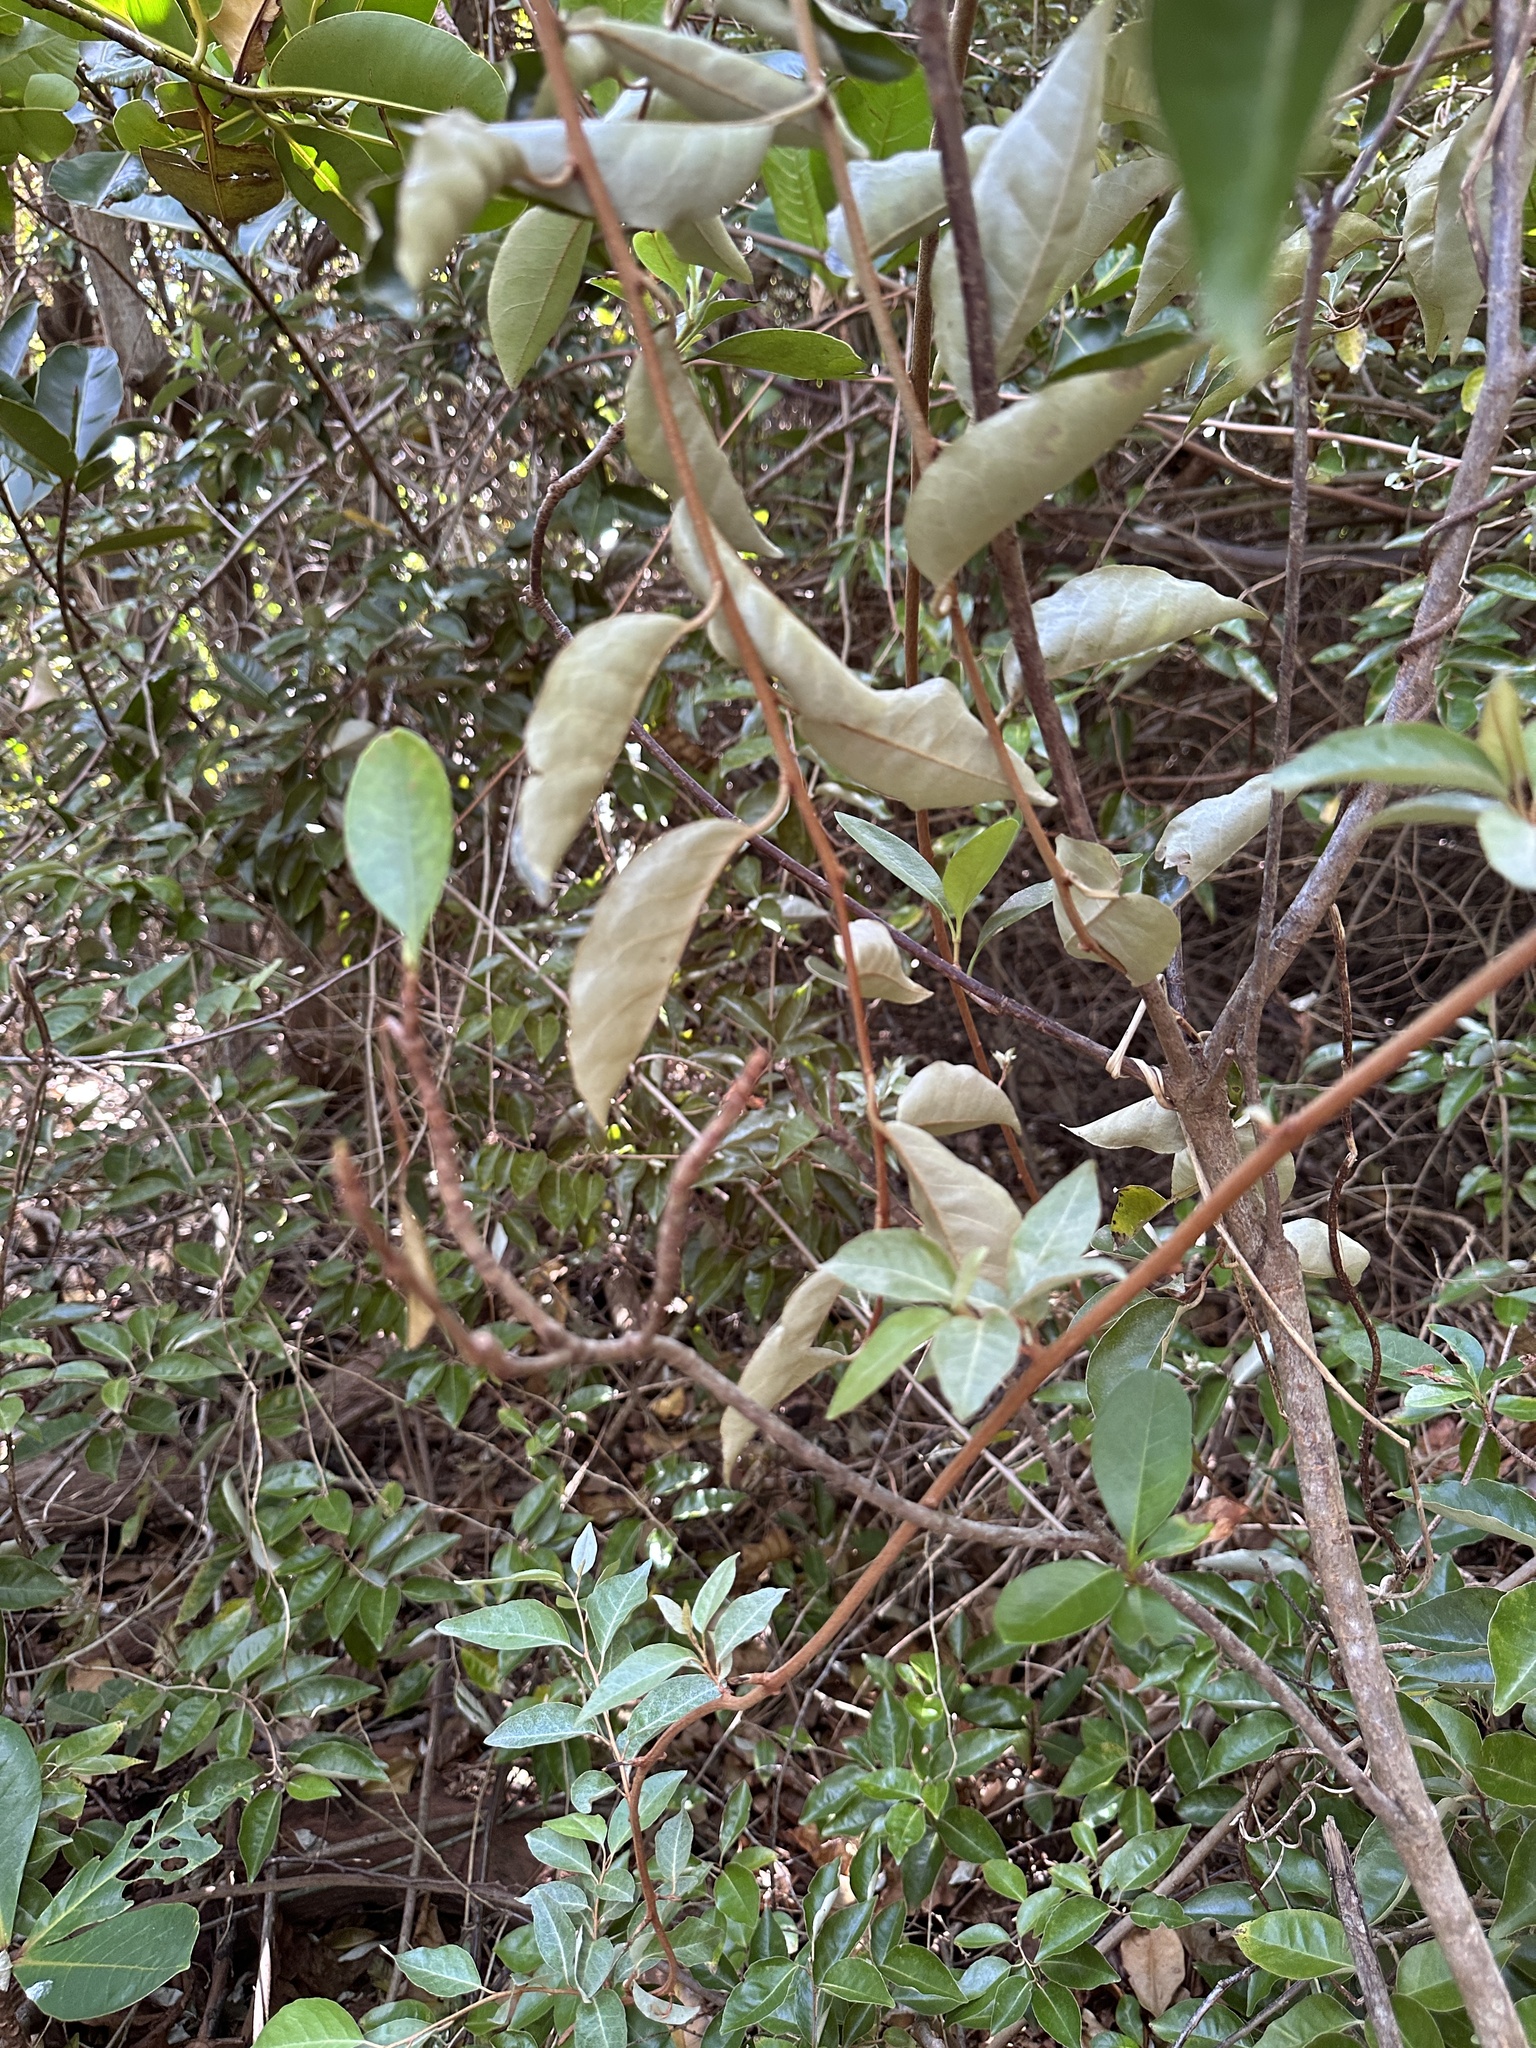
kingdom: Plantae
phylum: Tracheophyta
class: Magnoliopsida
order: Rosales
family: Elaeagnaceae
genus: Elaeagnus
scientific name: Elaeagnus rotundata
